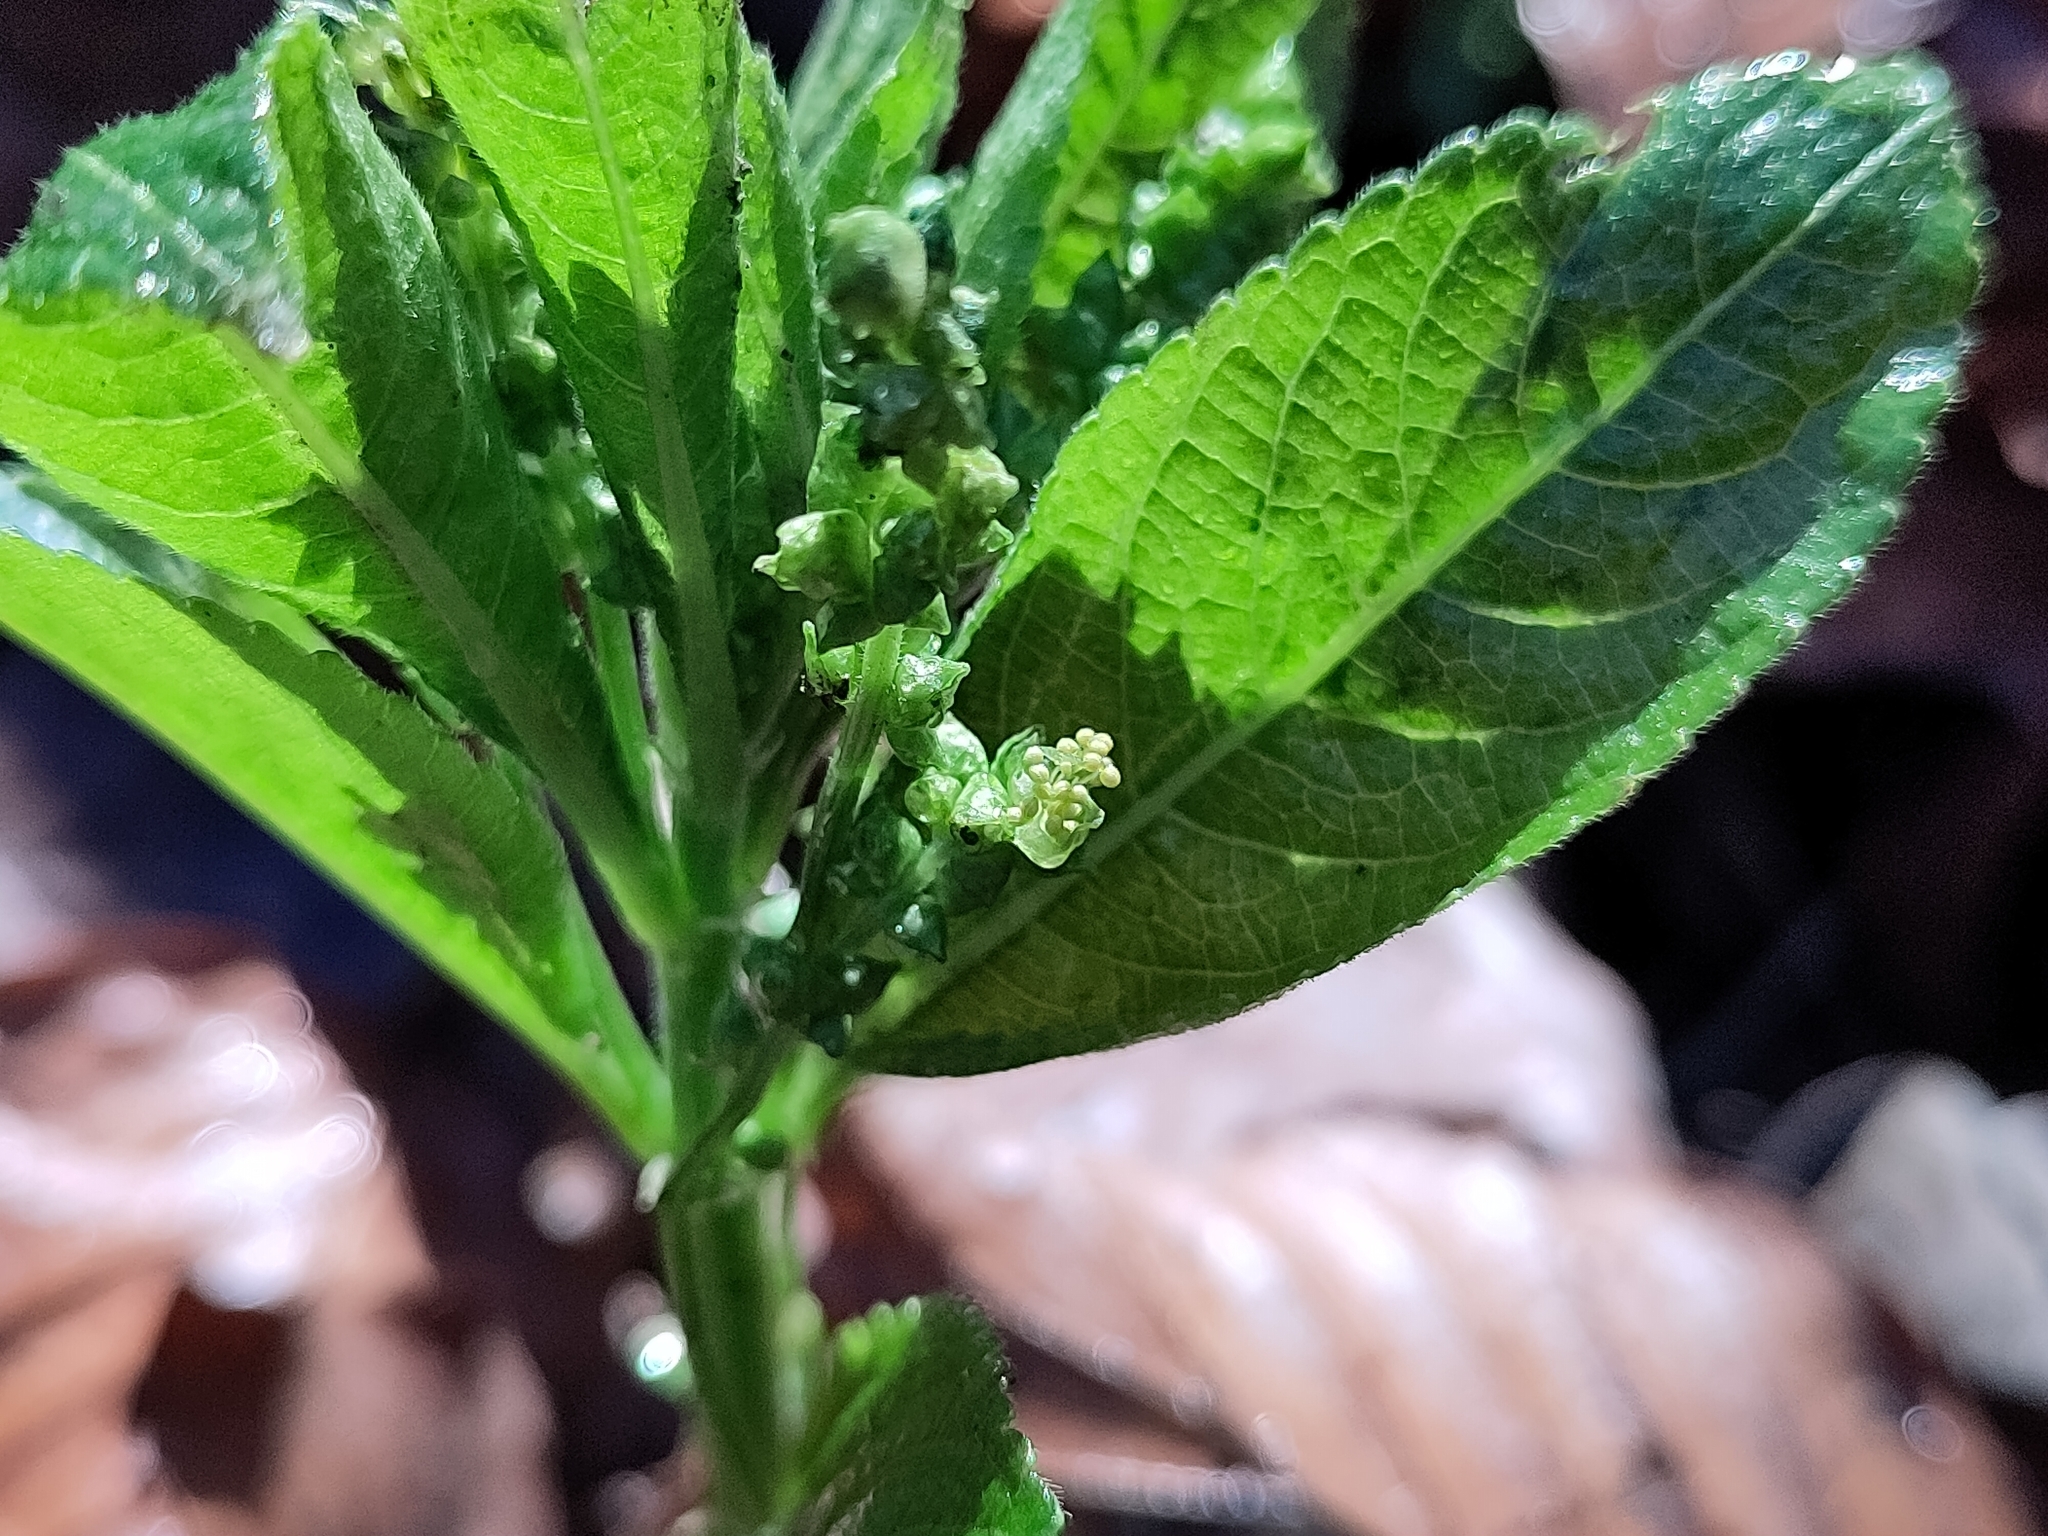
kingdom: Plantae
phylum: Tracheophyta
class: Magnoliopsida
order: Malpighiales
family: Euphorbiaceae
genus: Mercurialis
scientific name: Mercurialis perennis
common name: Dog mercury
